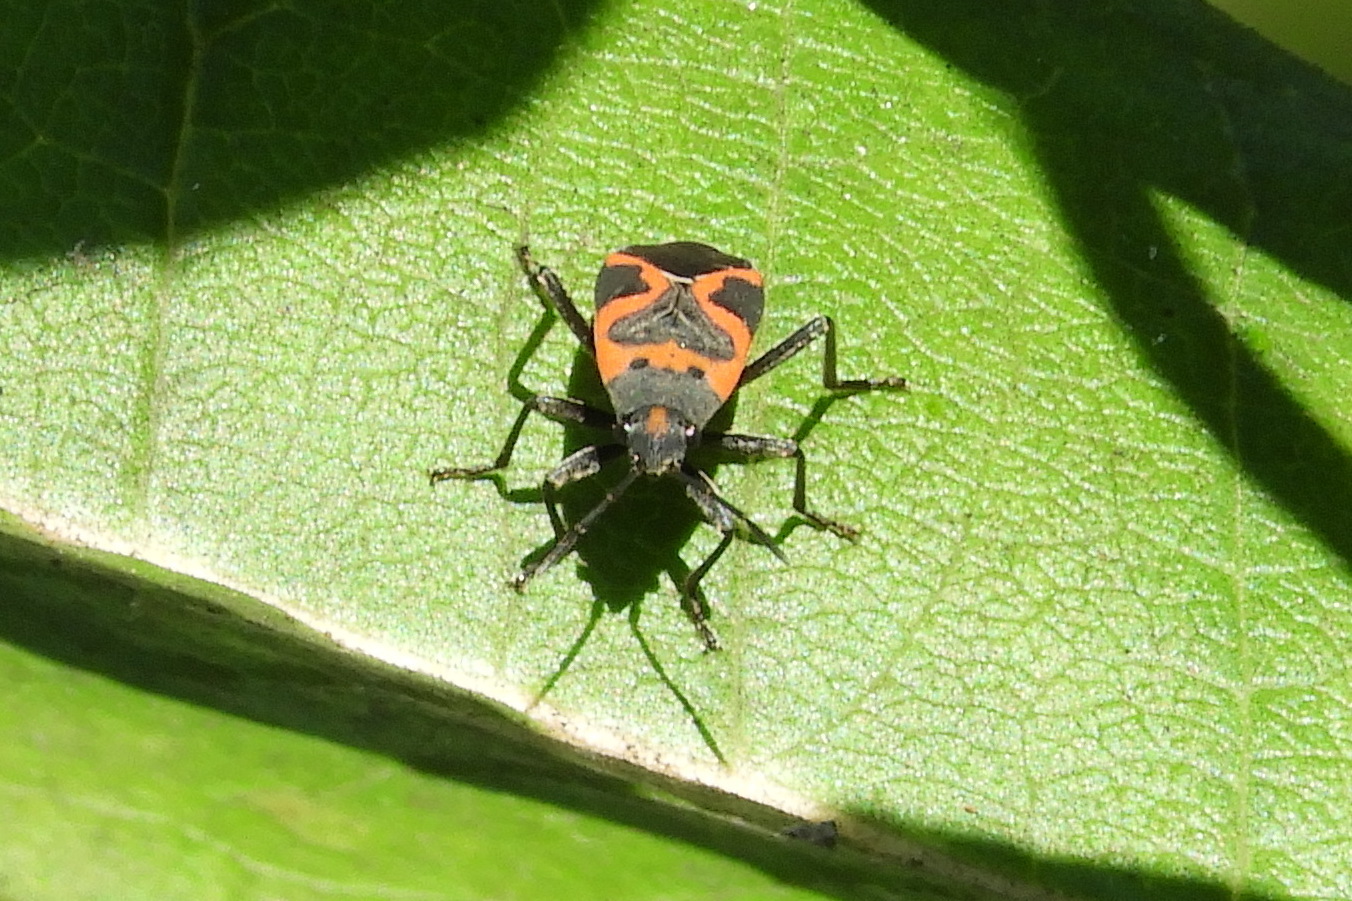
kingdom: Animalia
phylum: Arthropoda
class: Insecta
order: Hemiptera
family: Lygaeidae
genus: Lygaeus
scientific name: Lygaeus kalmii
